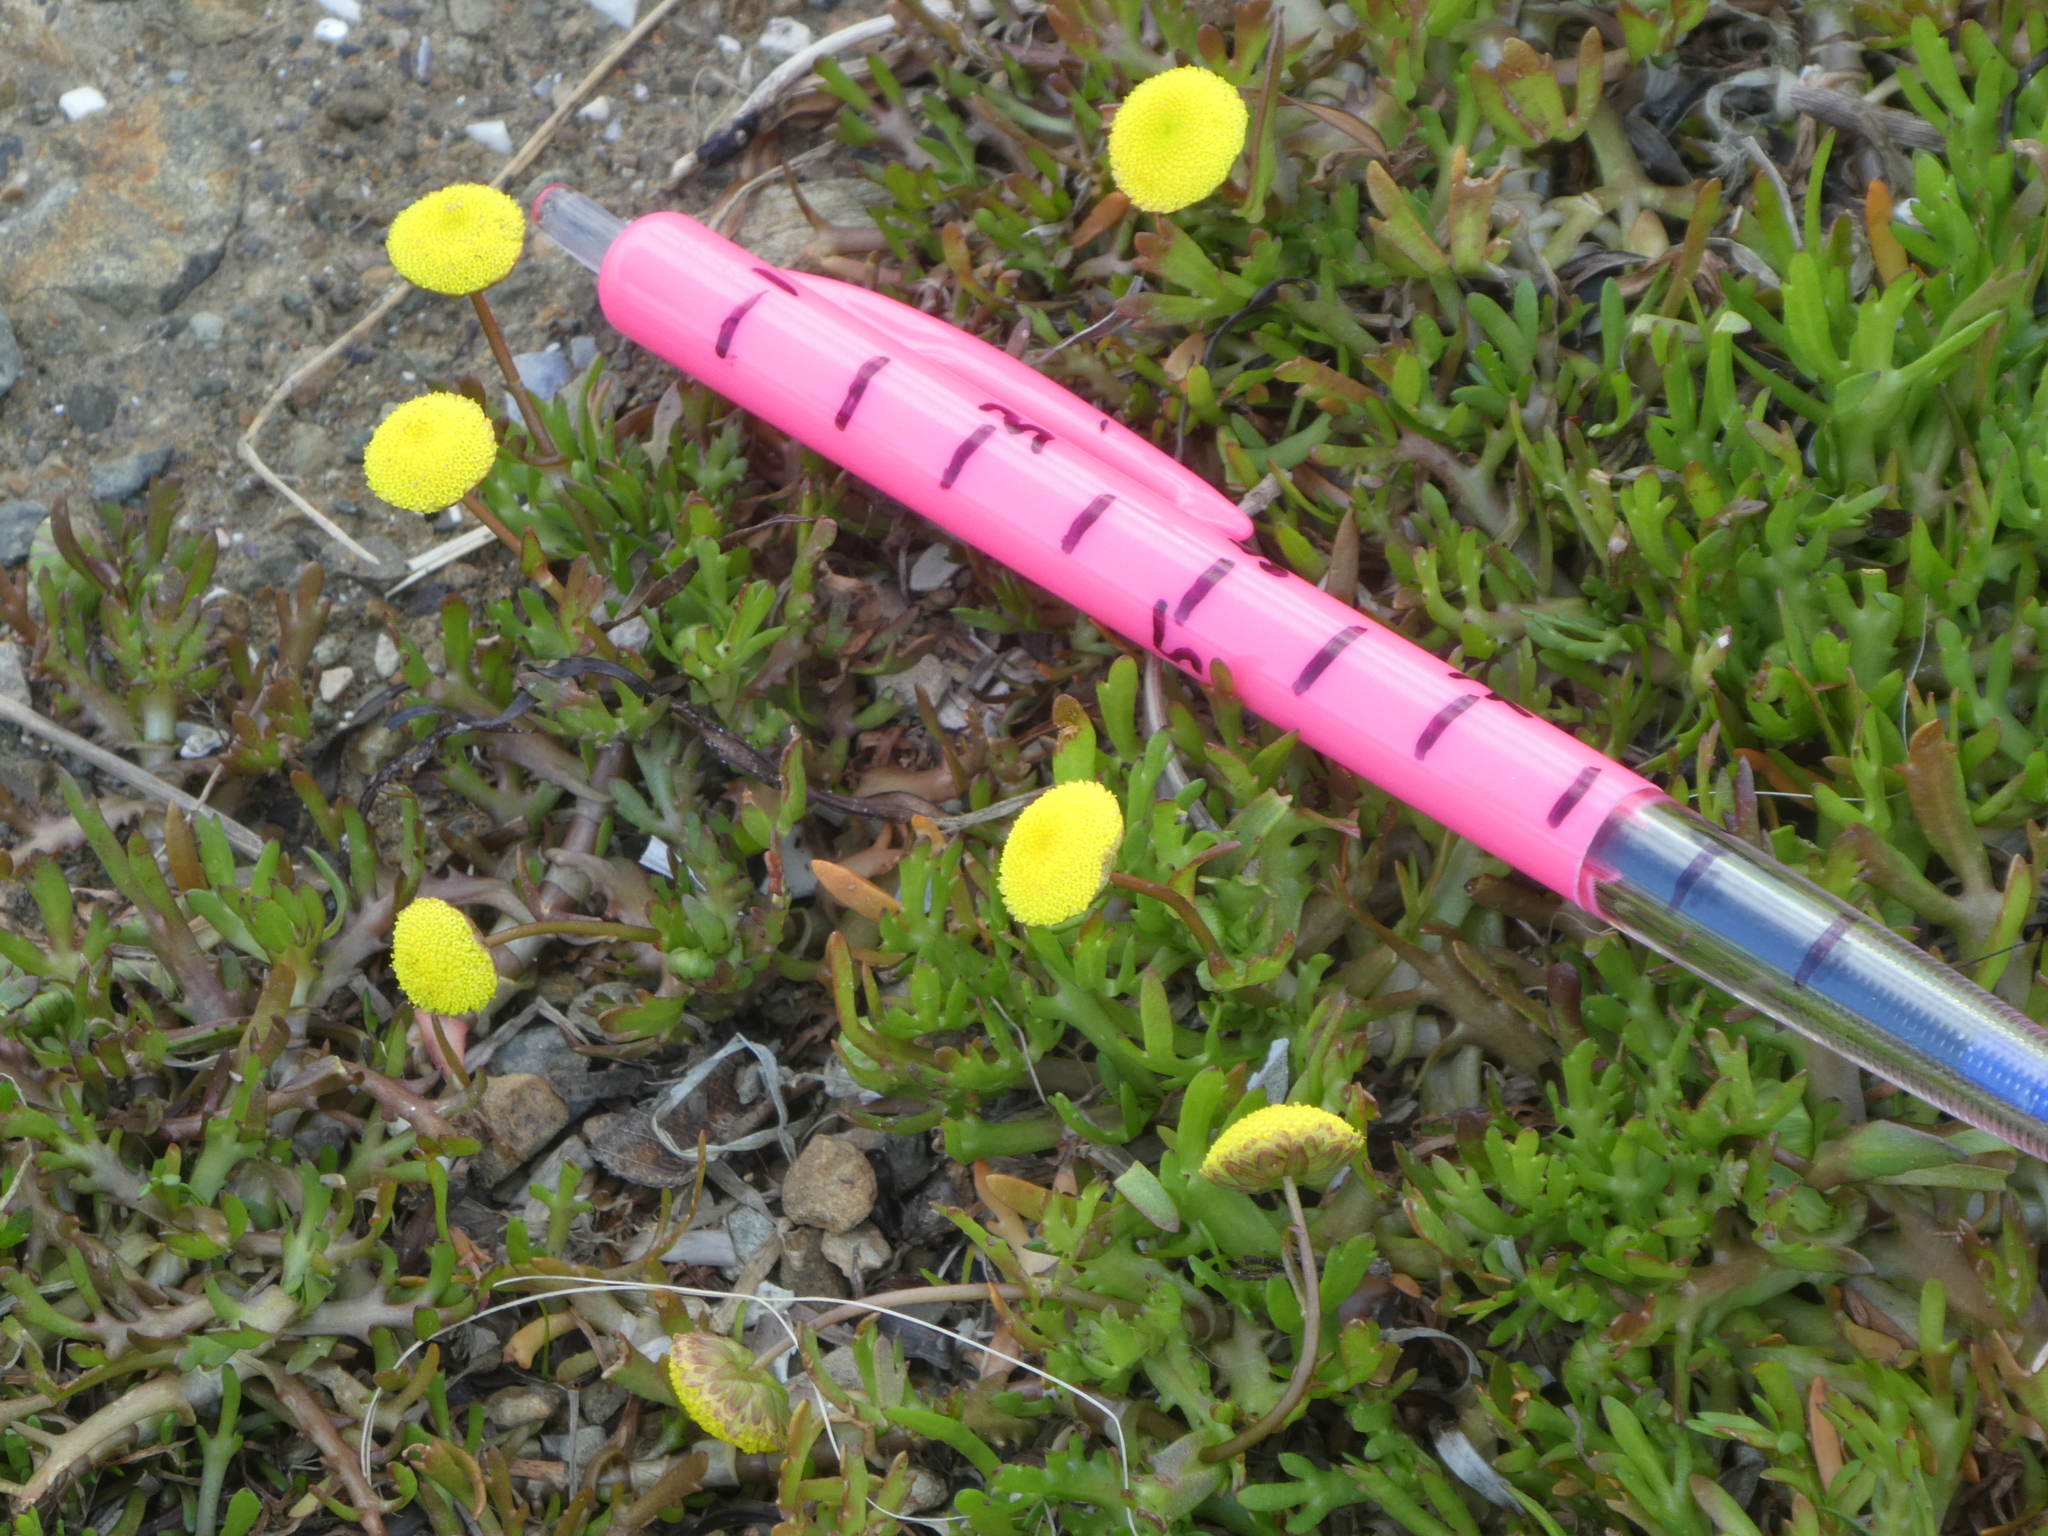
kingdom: Plantae
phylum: Tracheophyta
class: Magnoliopsida
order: Asterales
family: Asteraceae
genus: Cotula
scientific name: Cotula coronopifolia
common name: Buttonweed
